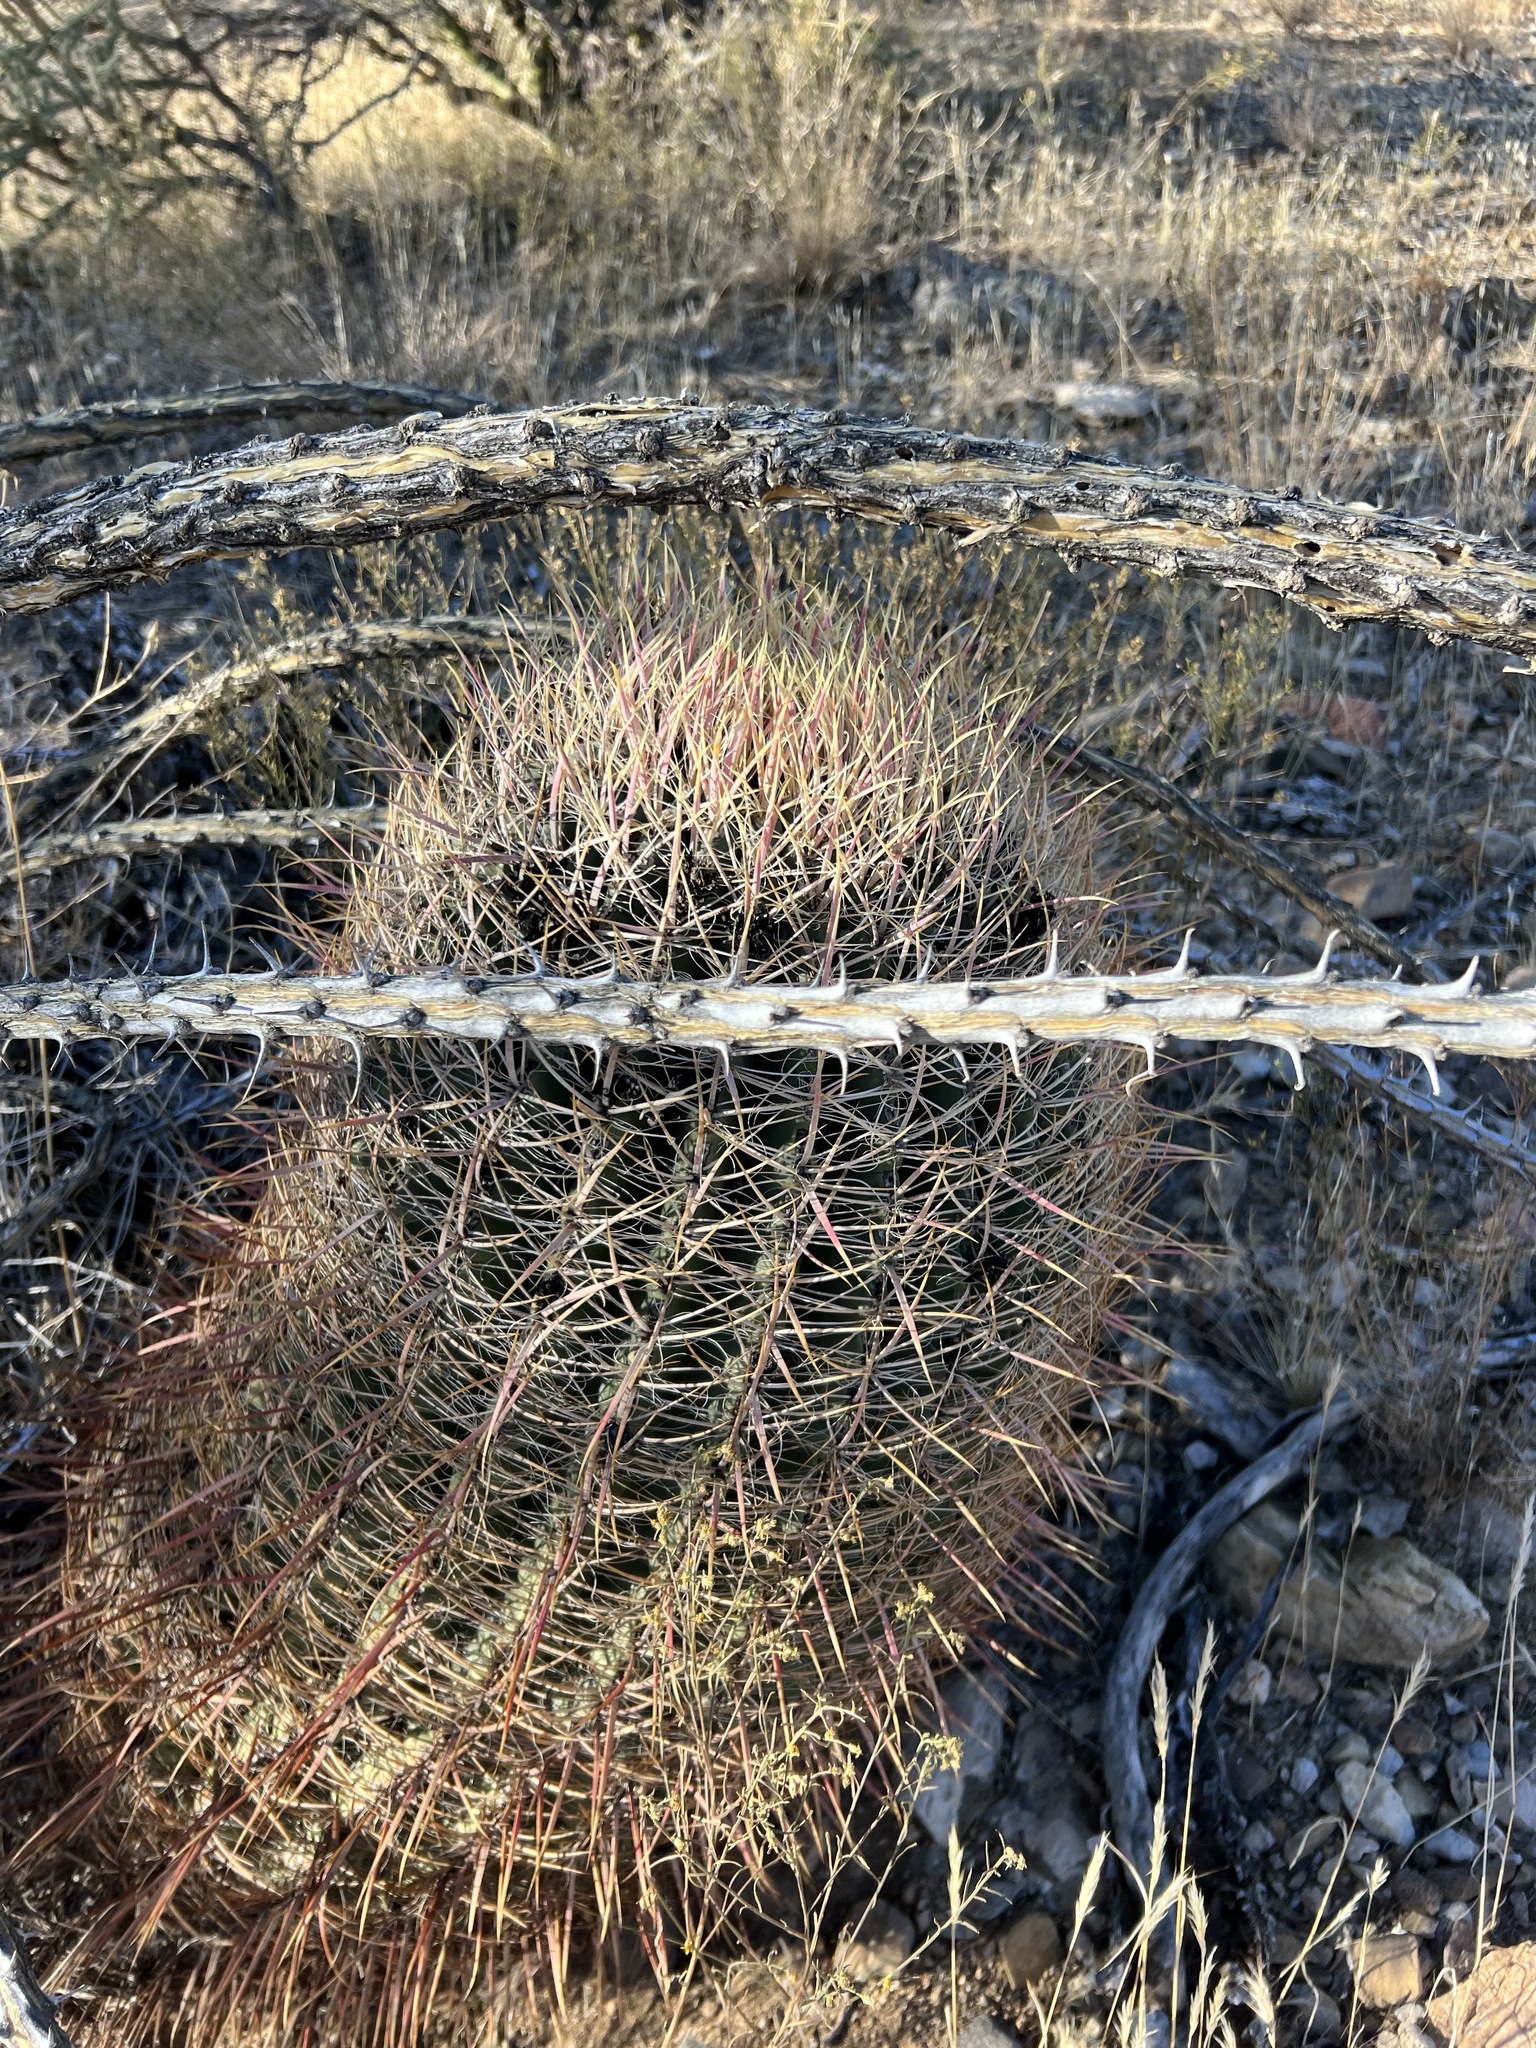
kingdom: Plantae
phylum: Tracheophyta
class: Magnoliopsida
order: Caryophyllales
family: Cactaceae
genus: Ferocactus
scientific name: Ferocactus cylindraceus
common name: California barrel cactus
